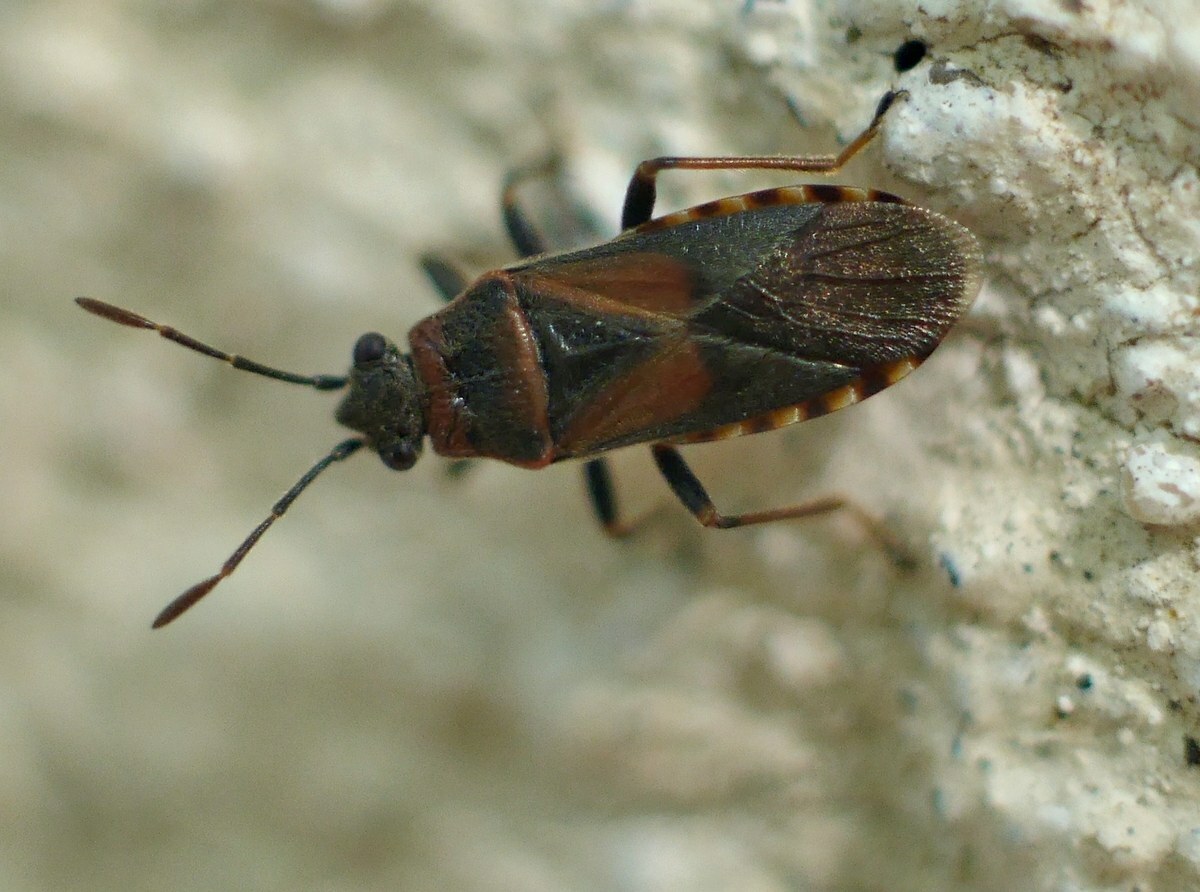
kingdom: Animalia
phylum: Arthropoda
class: Insecta
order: Hemiptera
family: Lygaeidae
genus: Arocatus
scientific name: Arocatus melanocephalus
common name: Lygaeid bug
